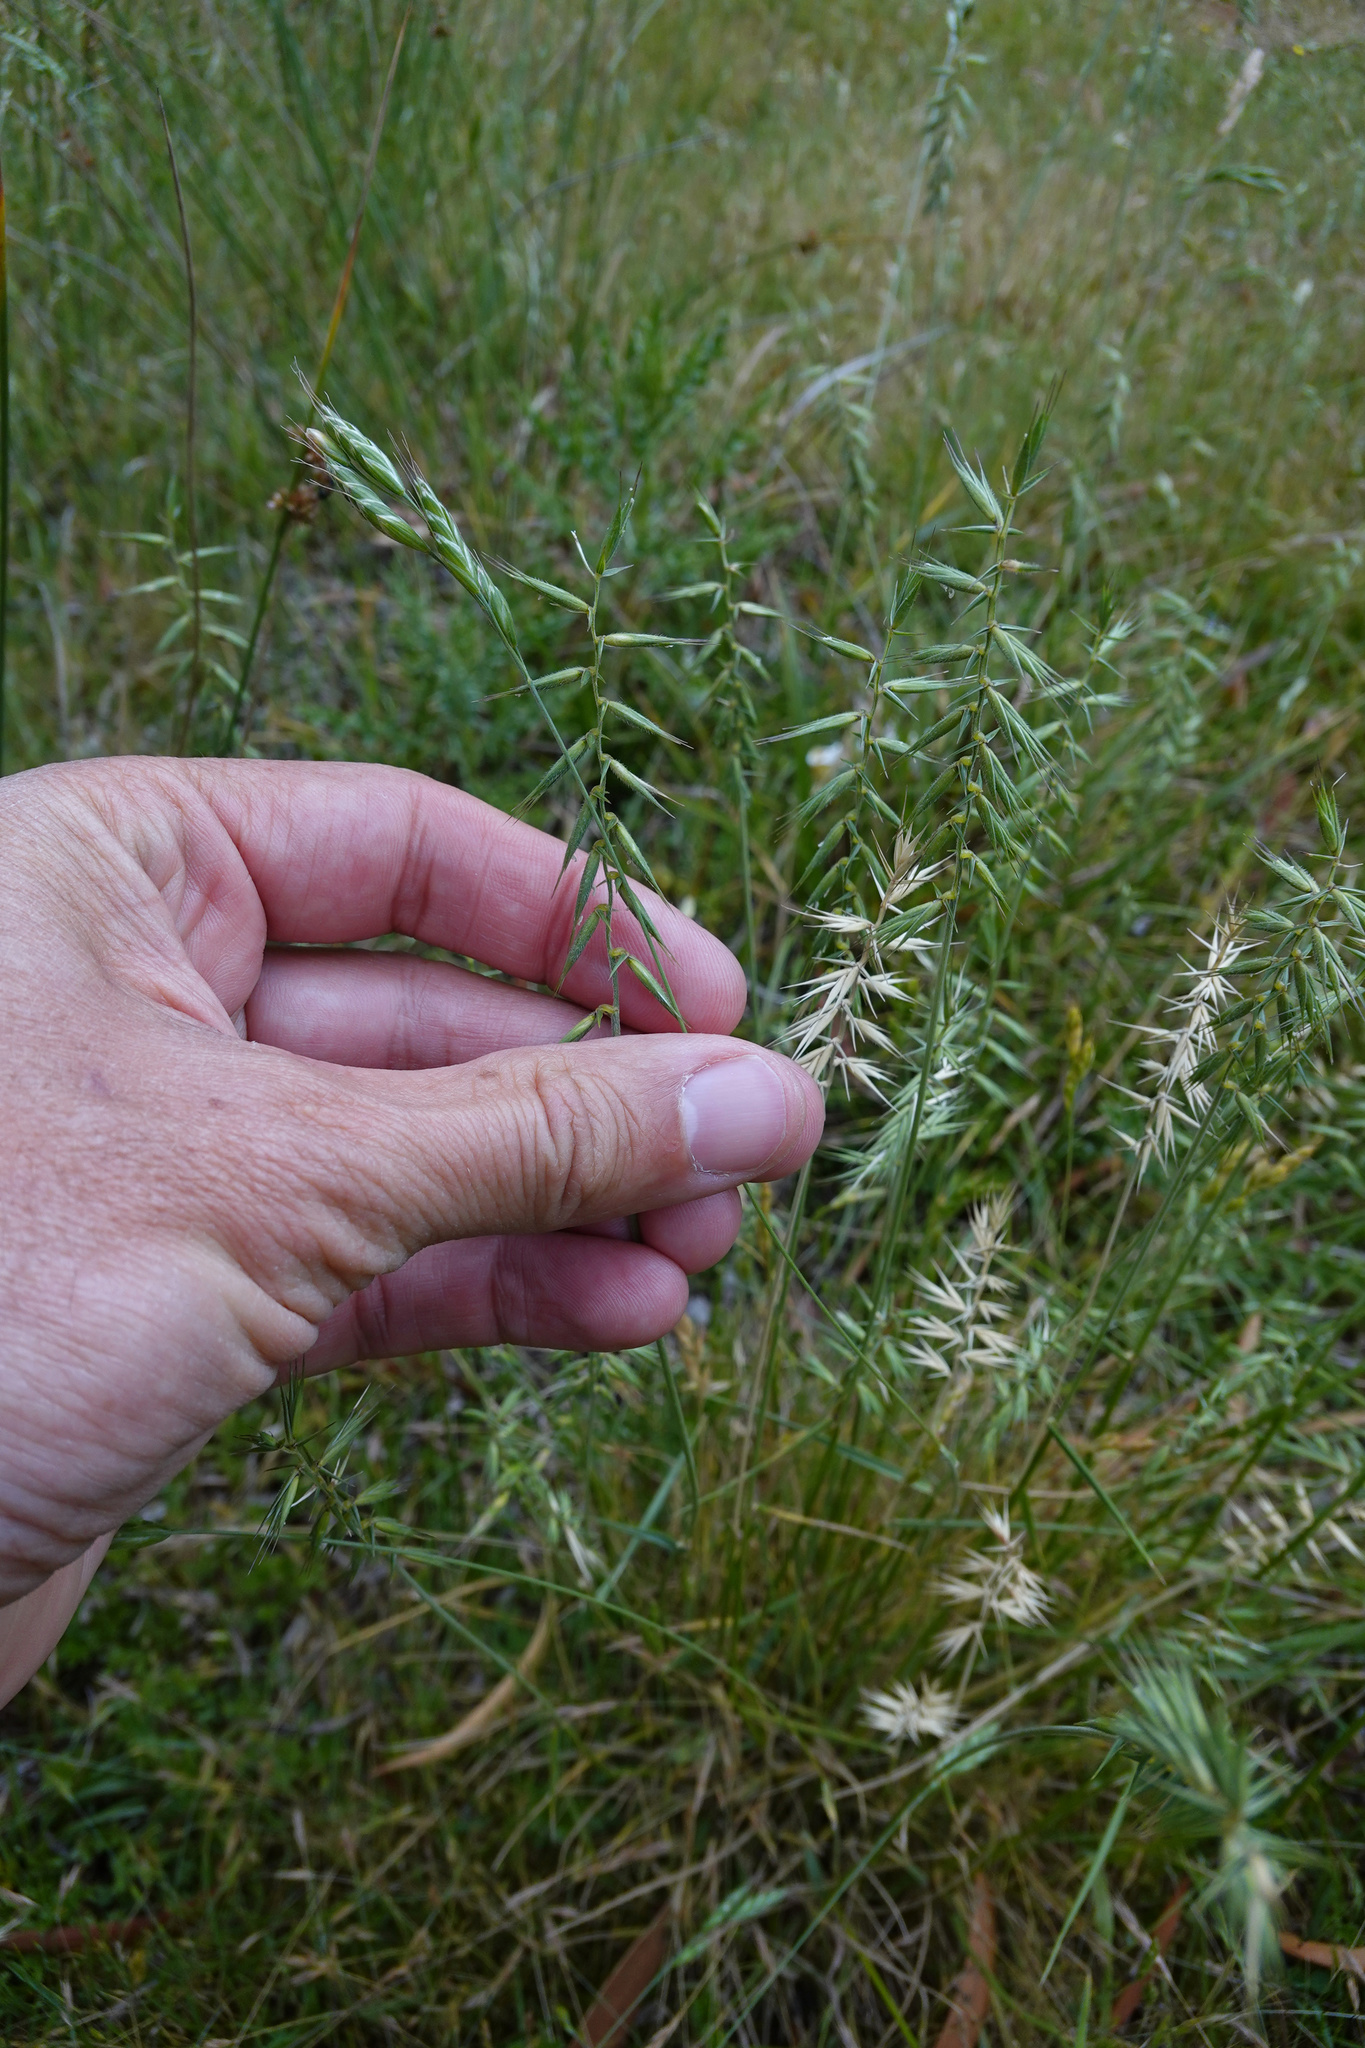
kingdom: Plantae
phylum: Tracheophyta
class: Liliopsida
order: Poales
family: Poaceae
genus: Australopyrum
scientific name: Australopyrum pectinatum
